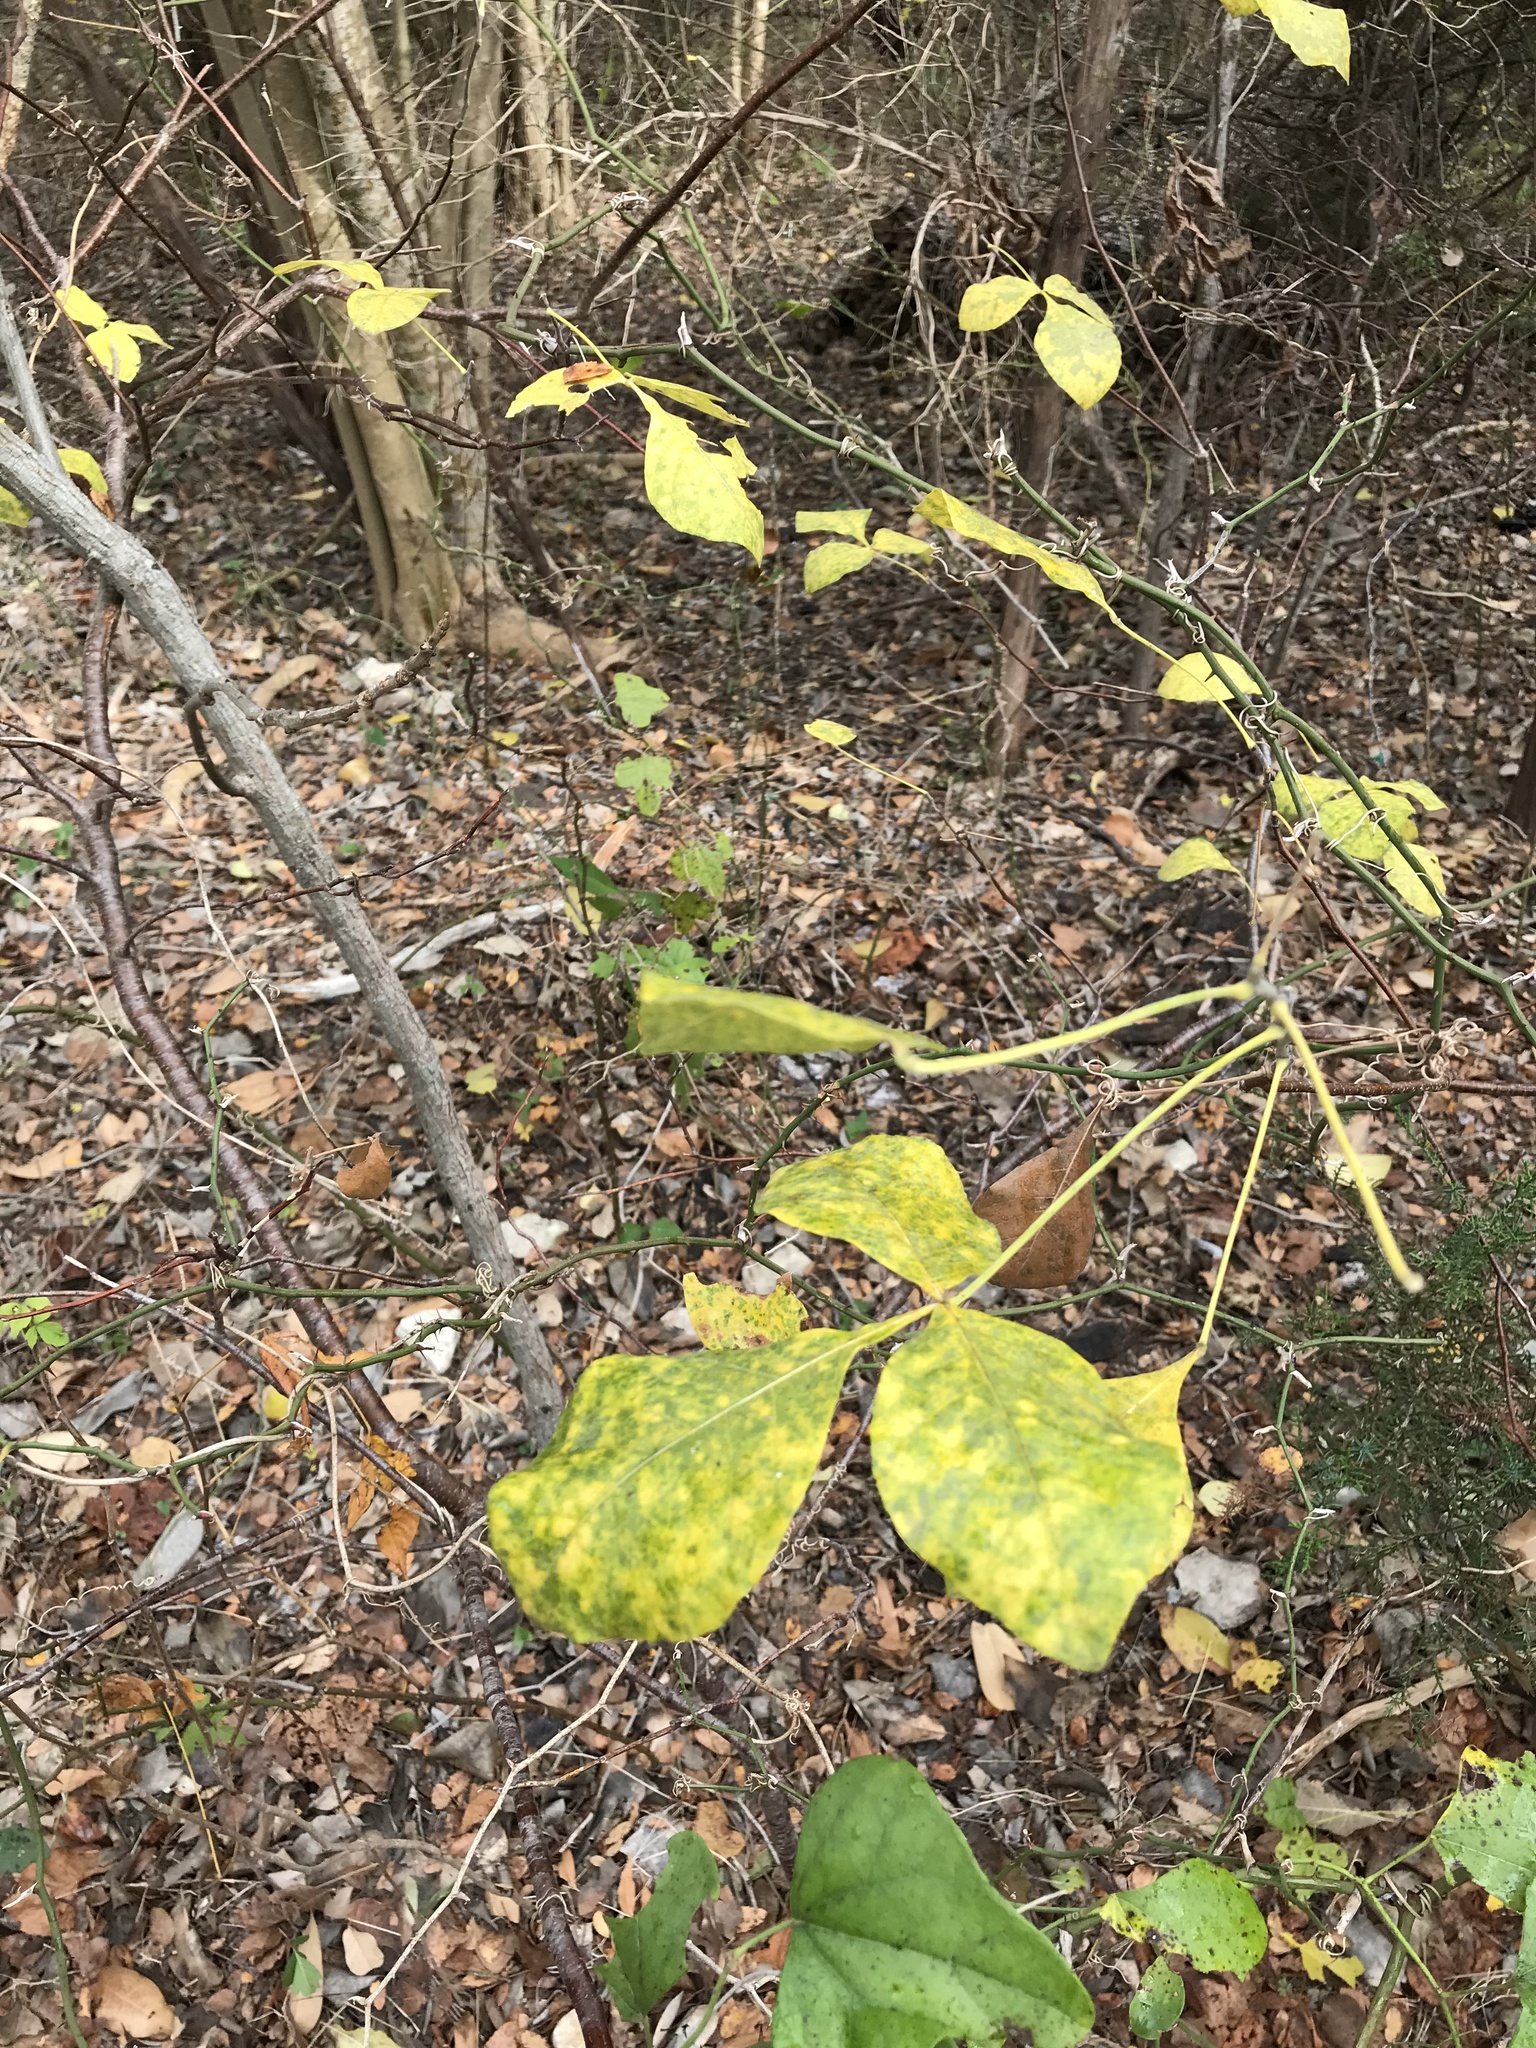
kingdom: Plantae
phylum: Tracheophyta
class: Magnoliopsida
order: Sapindales
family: Rutaceae
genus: Ptelea
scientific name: Ptelea trifoliata
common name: Common hop-tree
